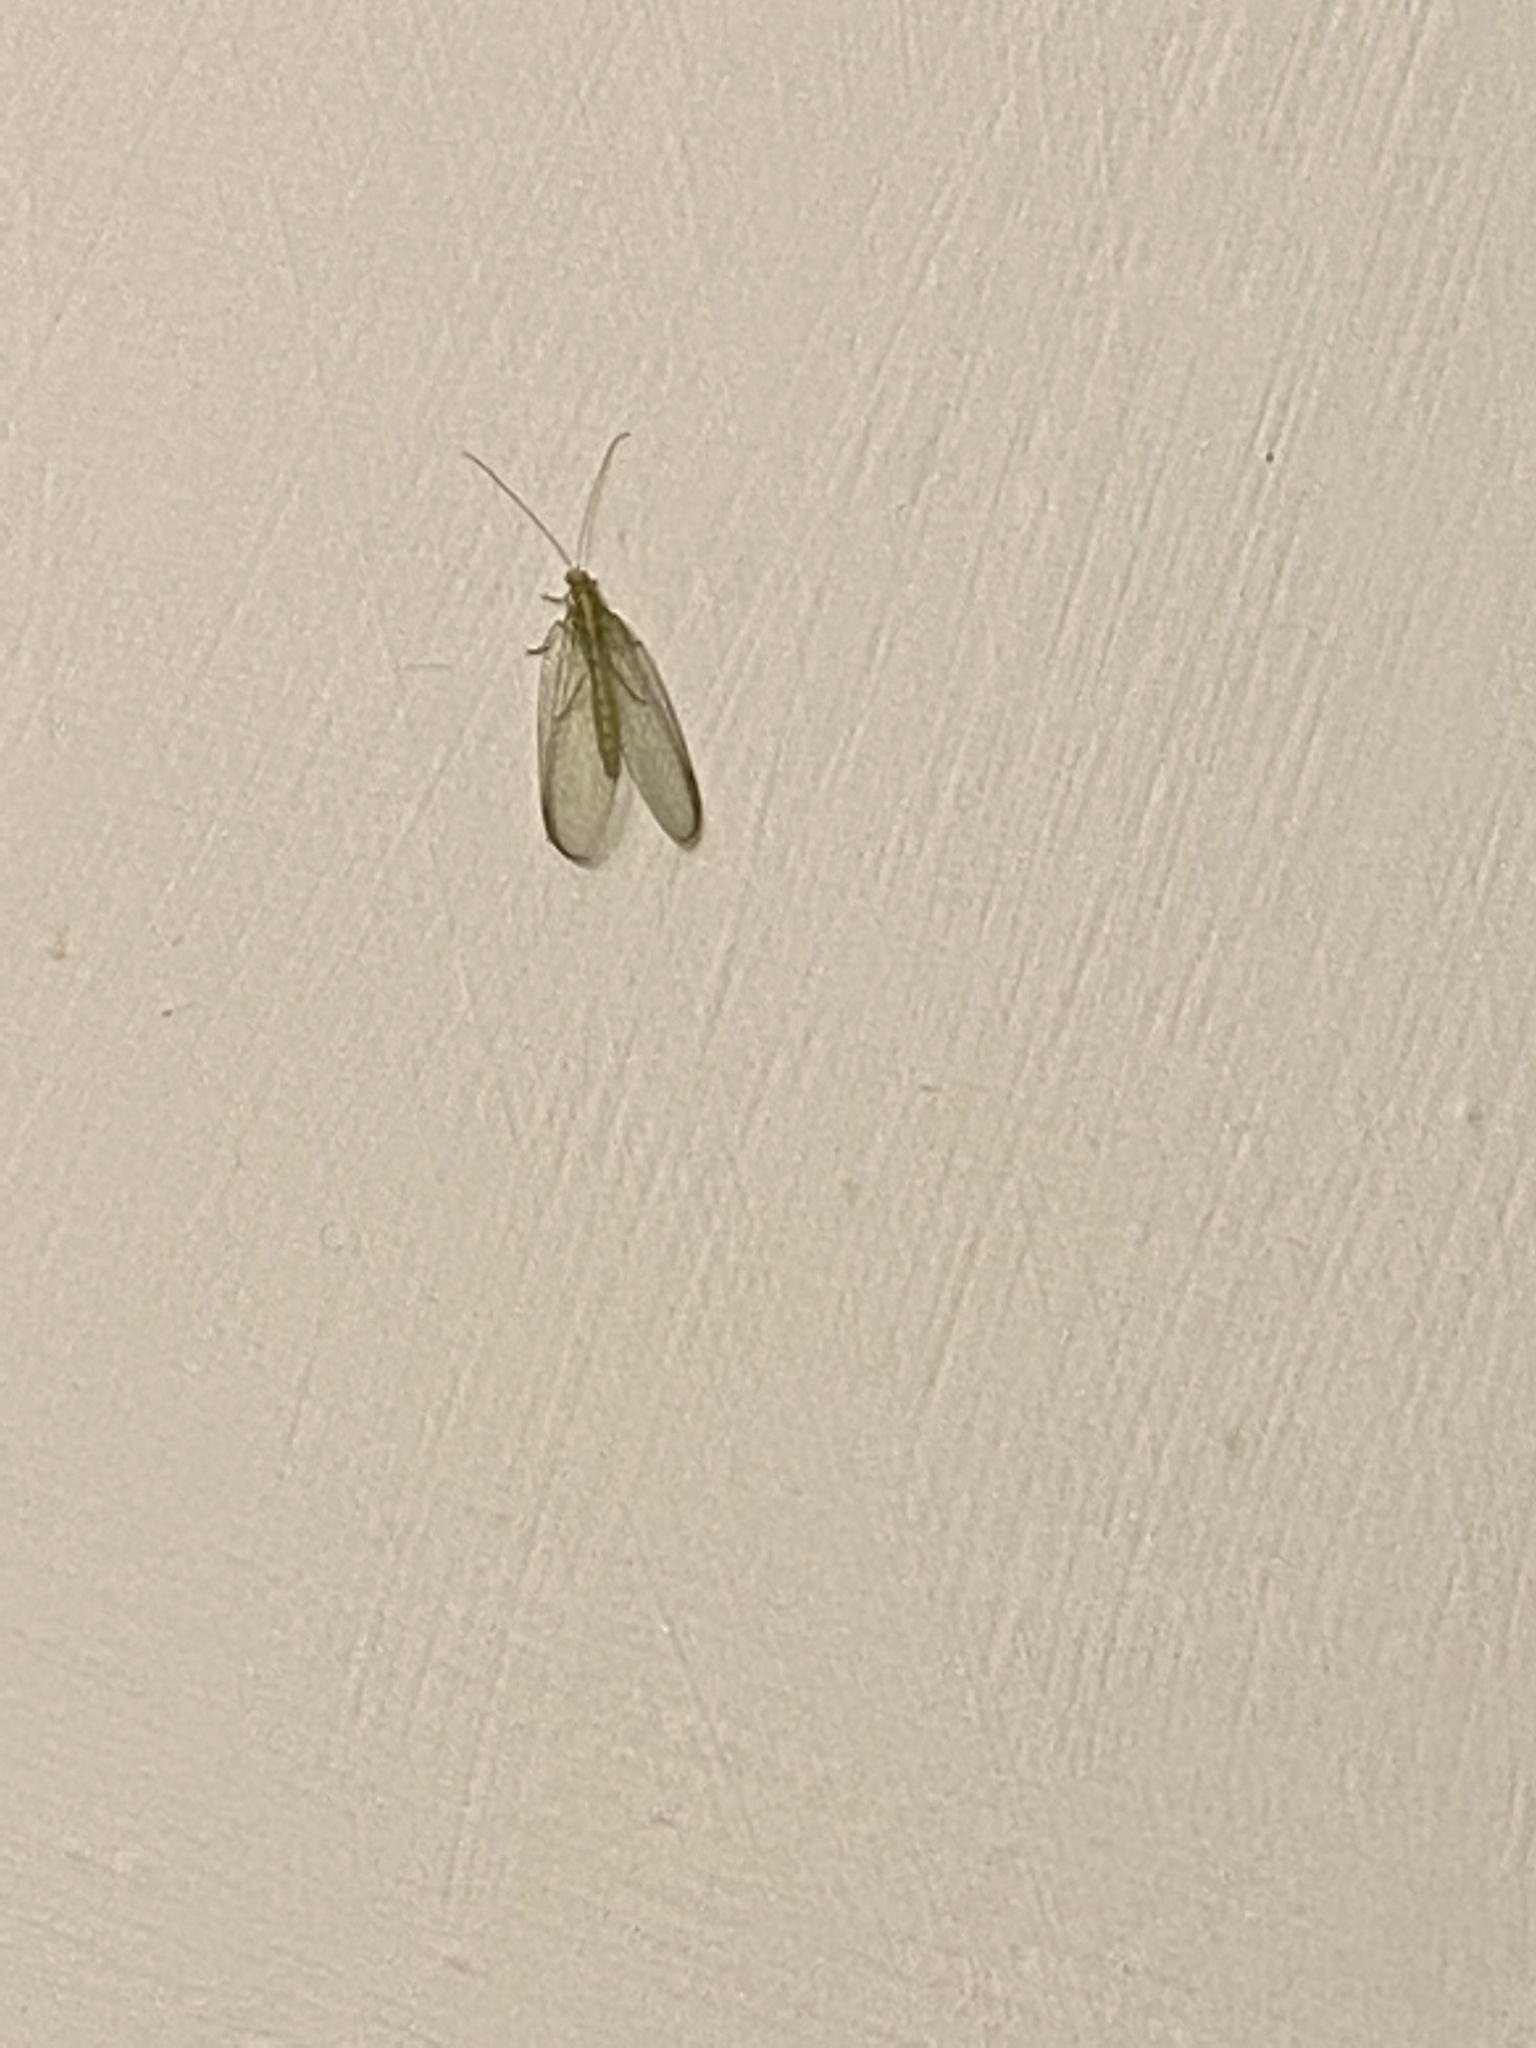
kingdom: Animalia
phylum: Arthropoda
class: Insecta
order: Neuroptera
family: Chrysopidae
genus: Chrysoperla
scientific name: Chrysoperla
